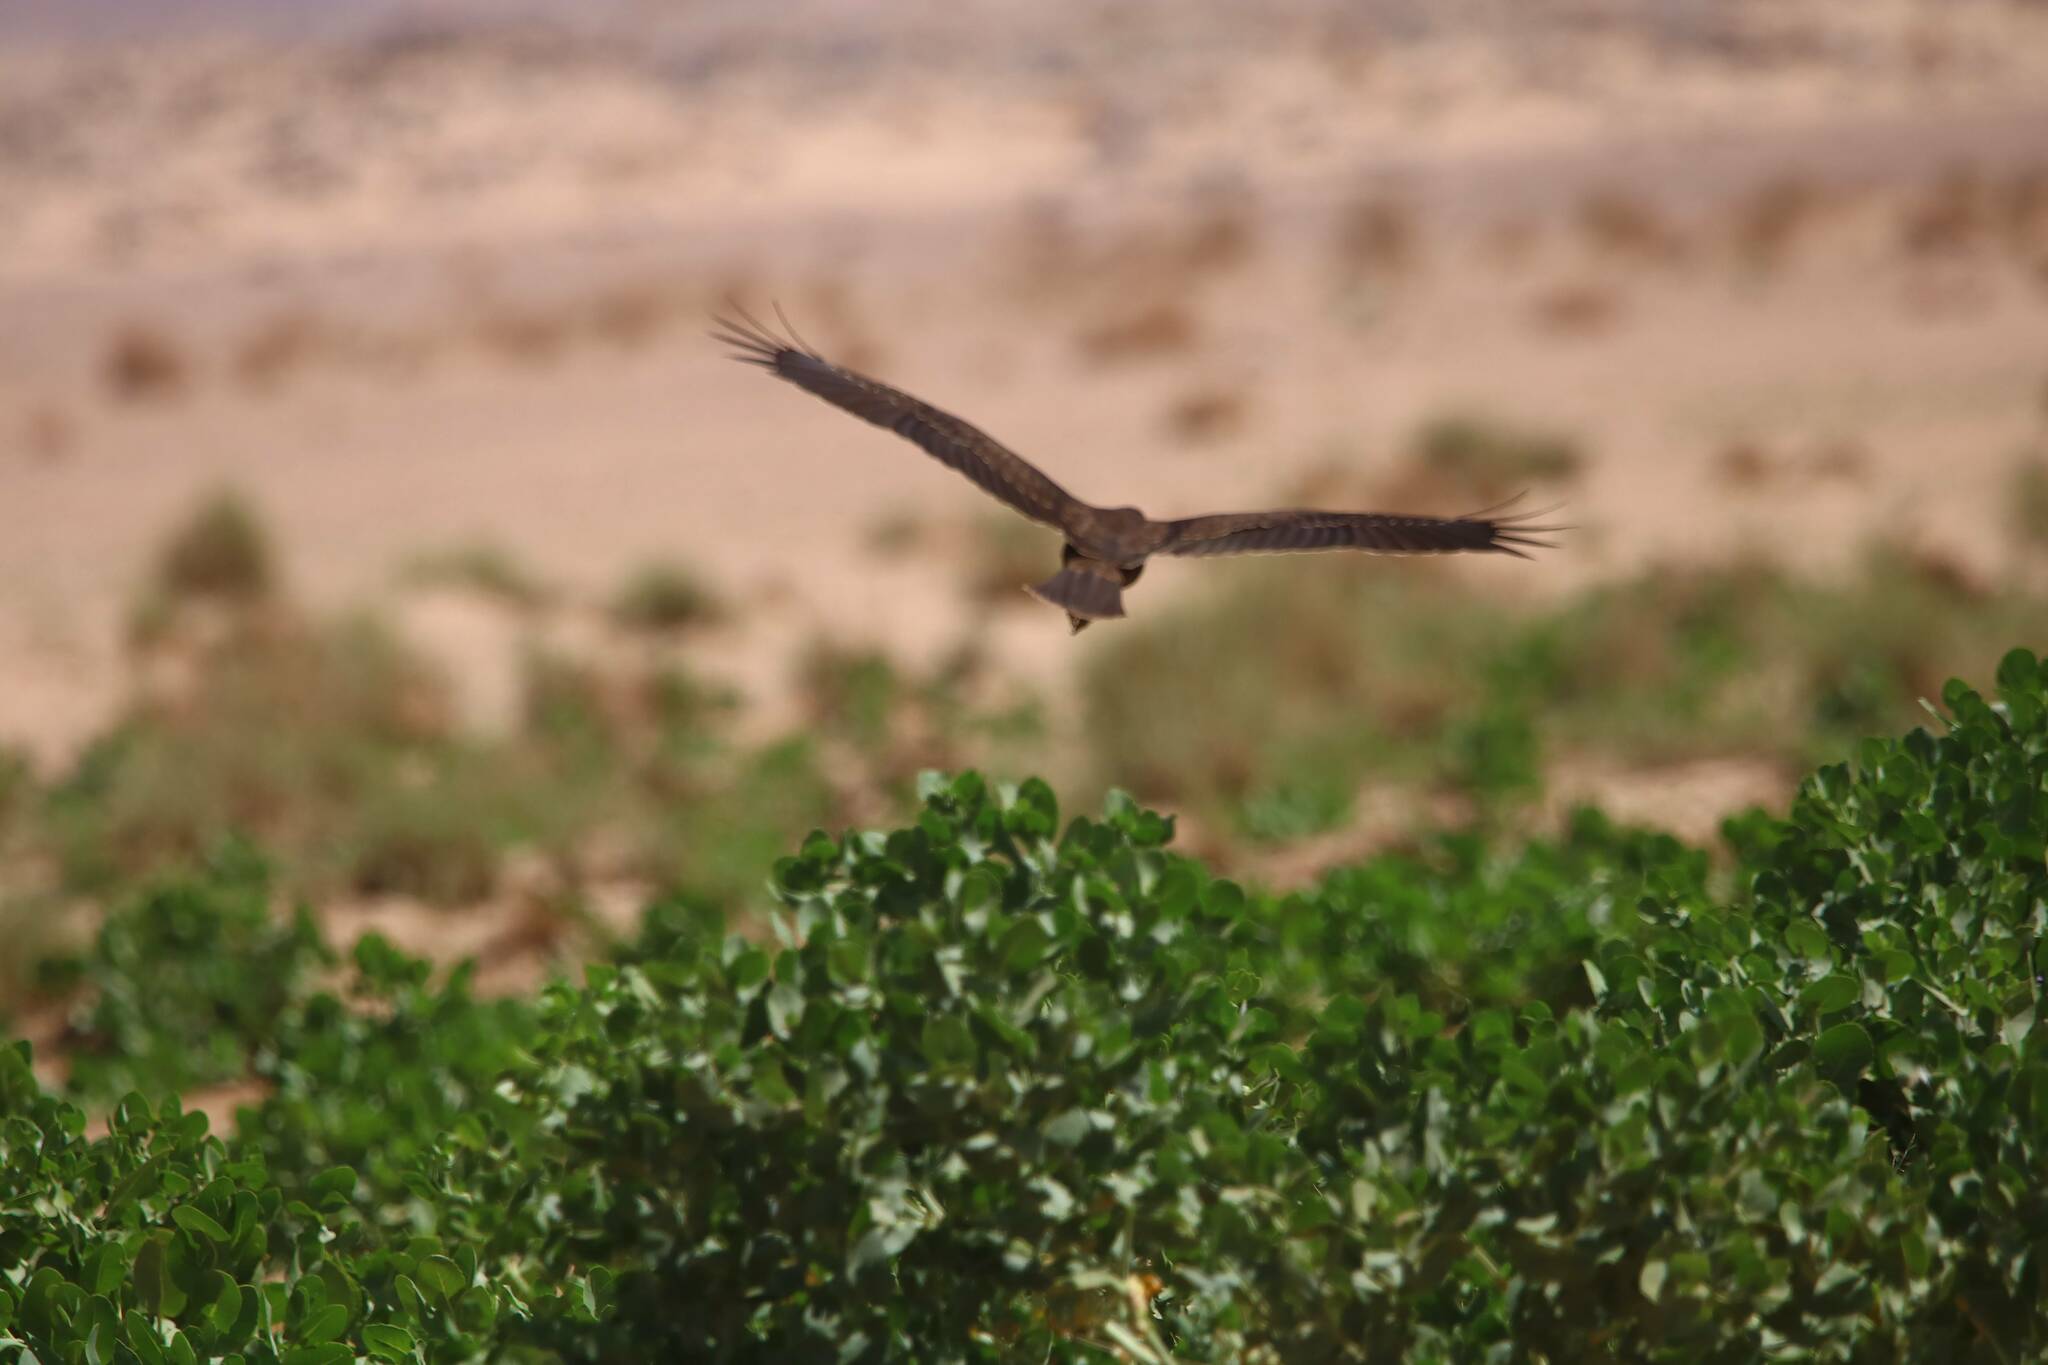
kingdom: Animalia
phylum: Chordata
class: Aves
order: Accipitriformes
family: Accipitridae
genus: Circus
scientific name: Circus aeruginosus
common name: Western marsh harrier
